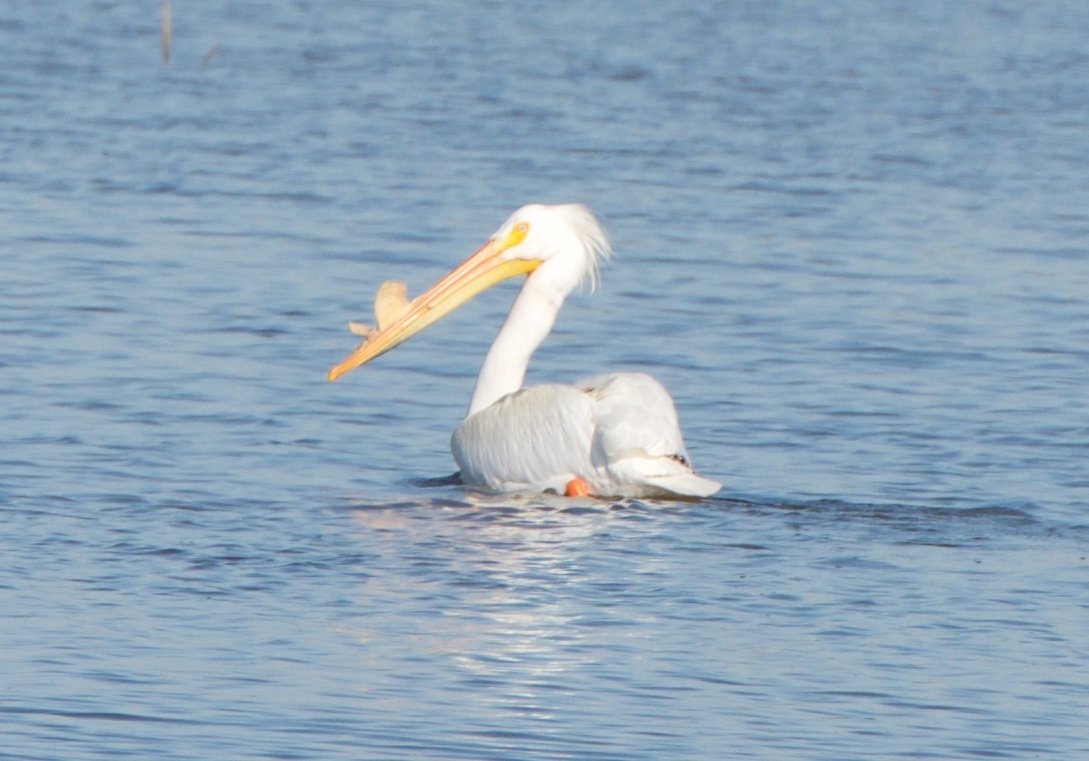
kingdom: Animalia
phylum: Chordata
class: Aves
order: Pelecaniformes
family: Pelecanidae
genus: Pelecanus
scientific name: Pelecanus erythrorhynchos
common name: American white pelican
